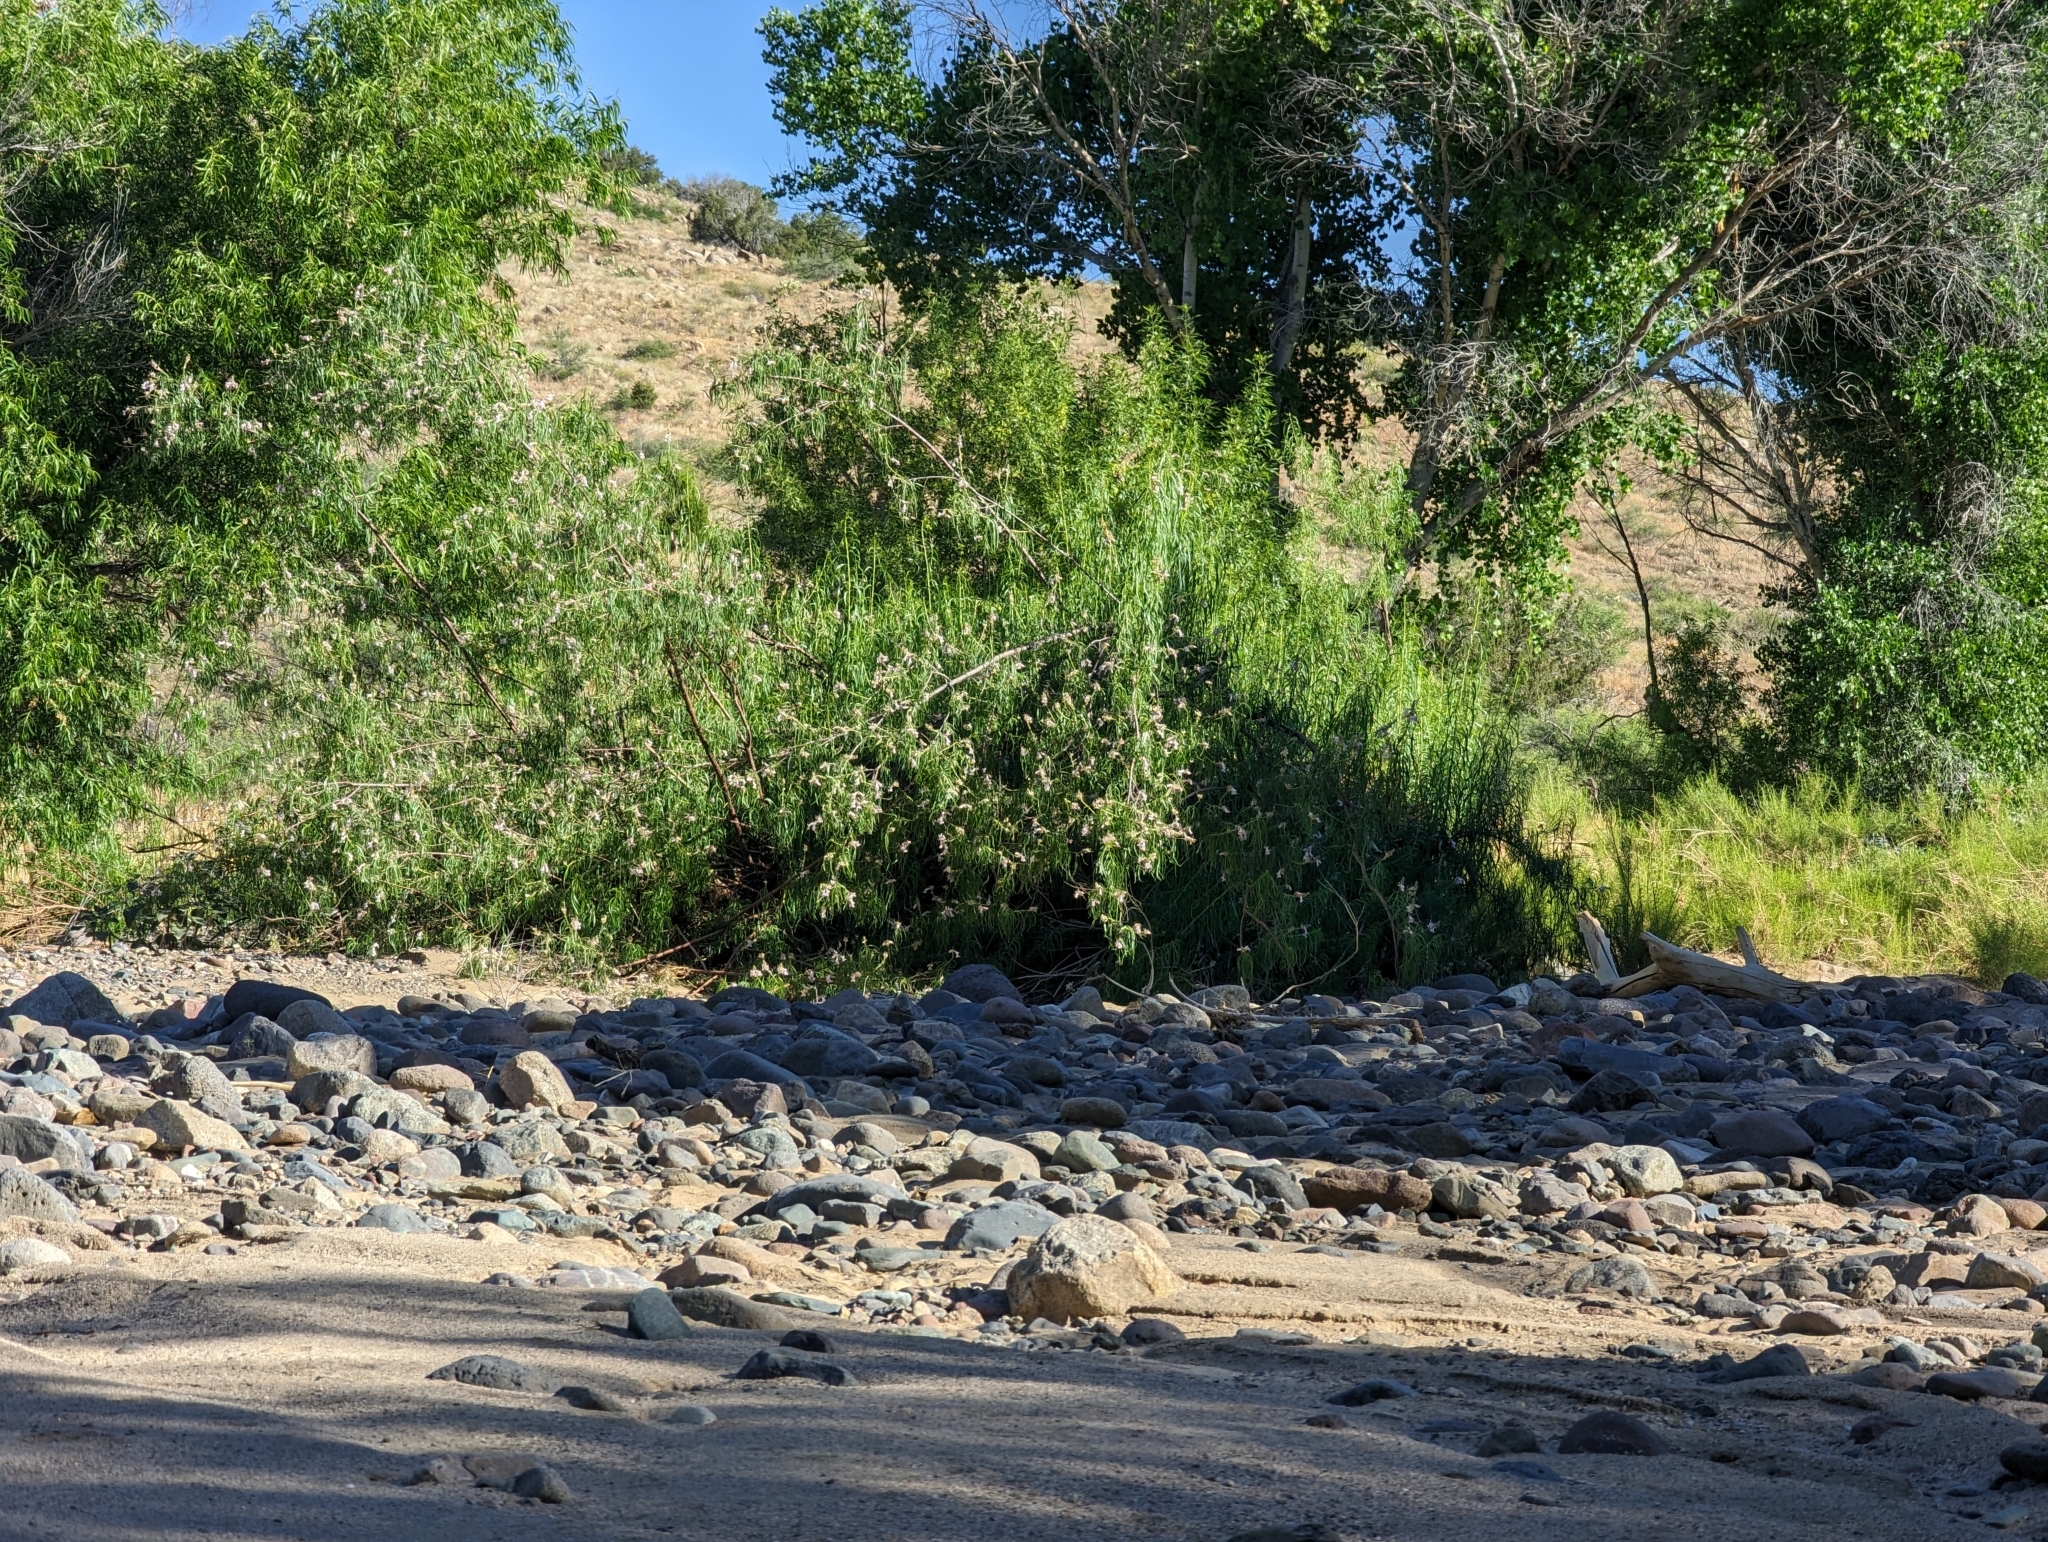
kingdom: Plantae
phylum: Tracheophyta
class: Magnoliopsida
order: Lamiales
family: Bignoniaceae
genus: Chilopsis
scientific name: Chilopsis linearis
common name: Desert-willow
